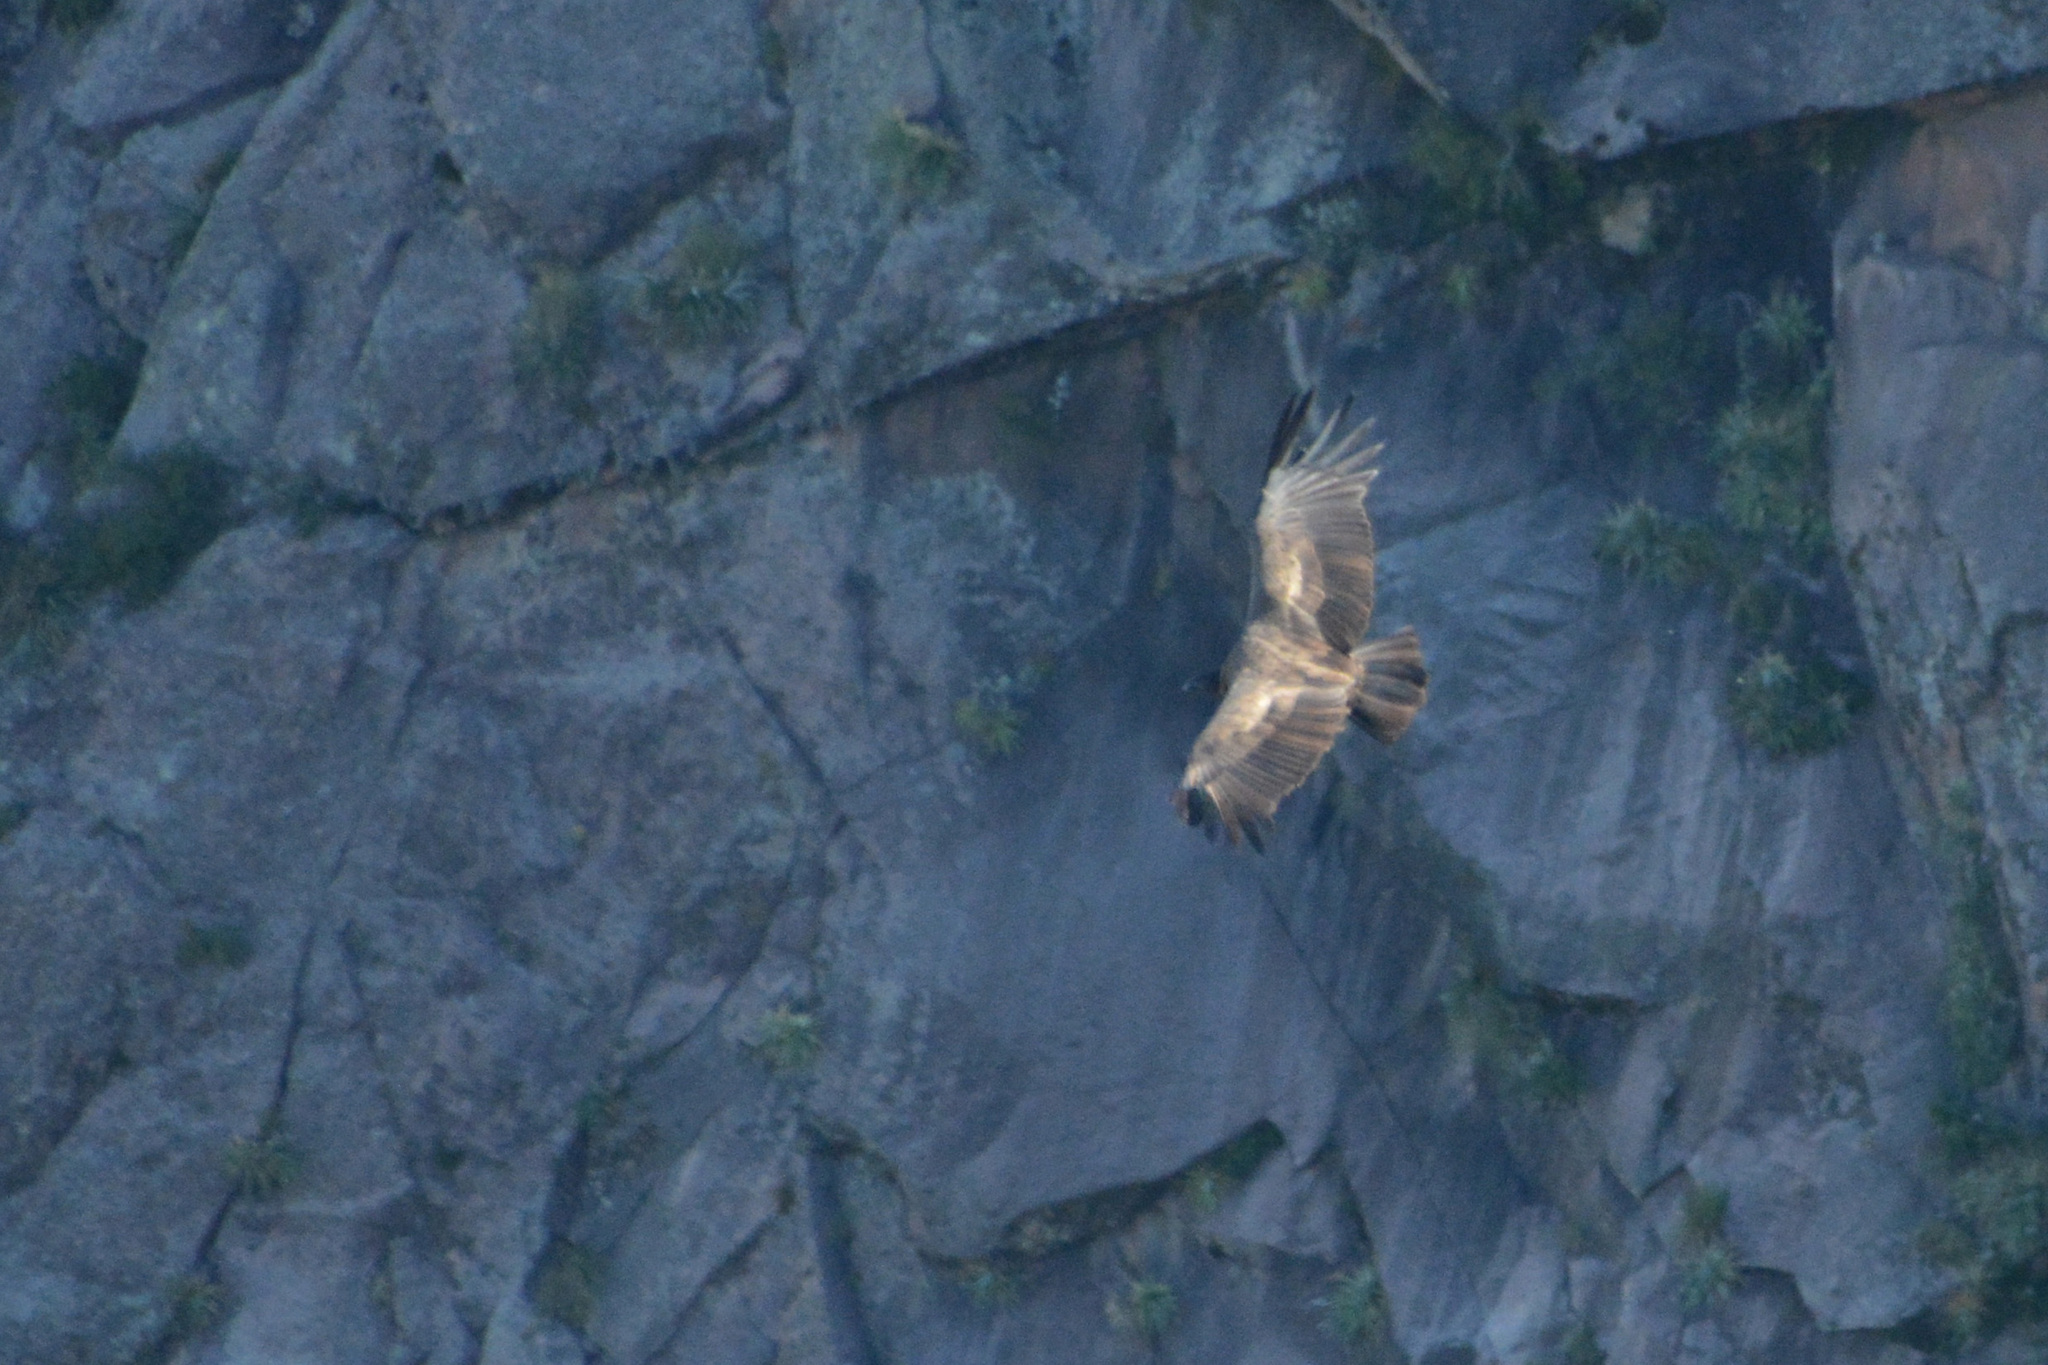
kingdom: Animalia
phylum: Chordata
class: Aves
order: Accipitriformes
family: Cathartidae
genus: Vultur
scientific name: Vultur gryphus
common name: Andean condor
